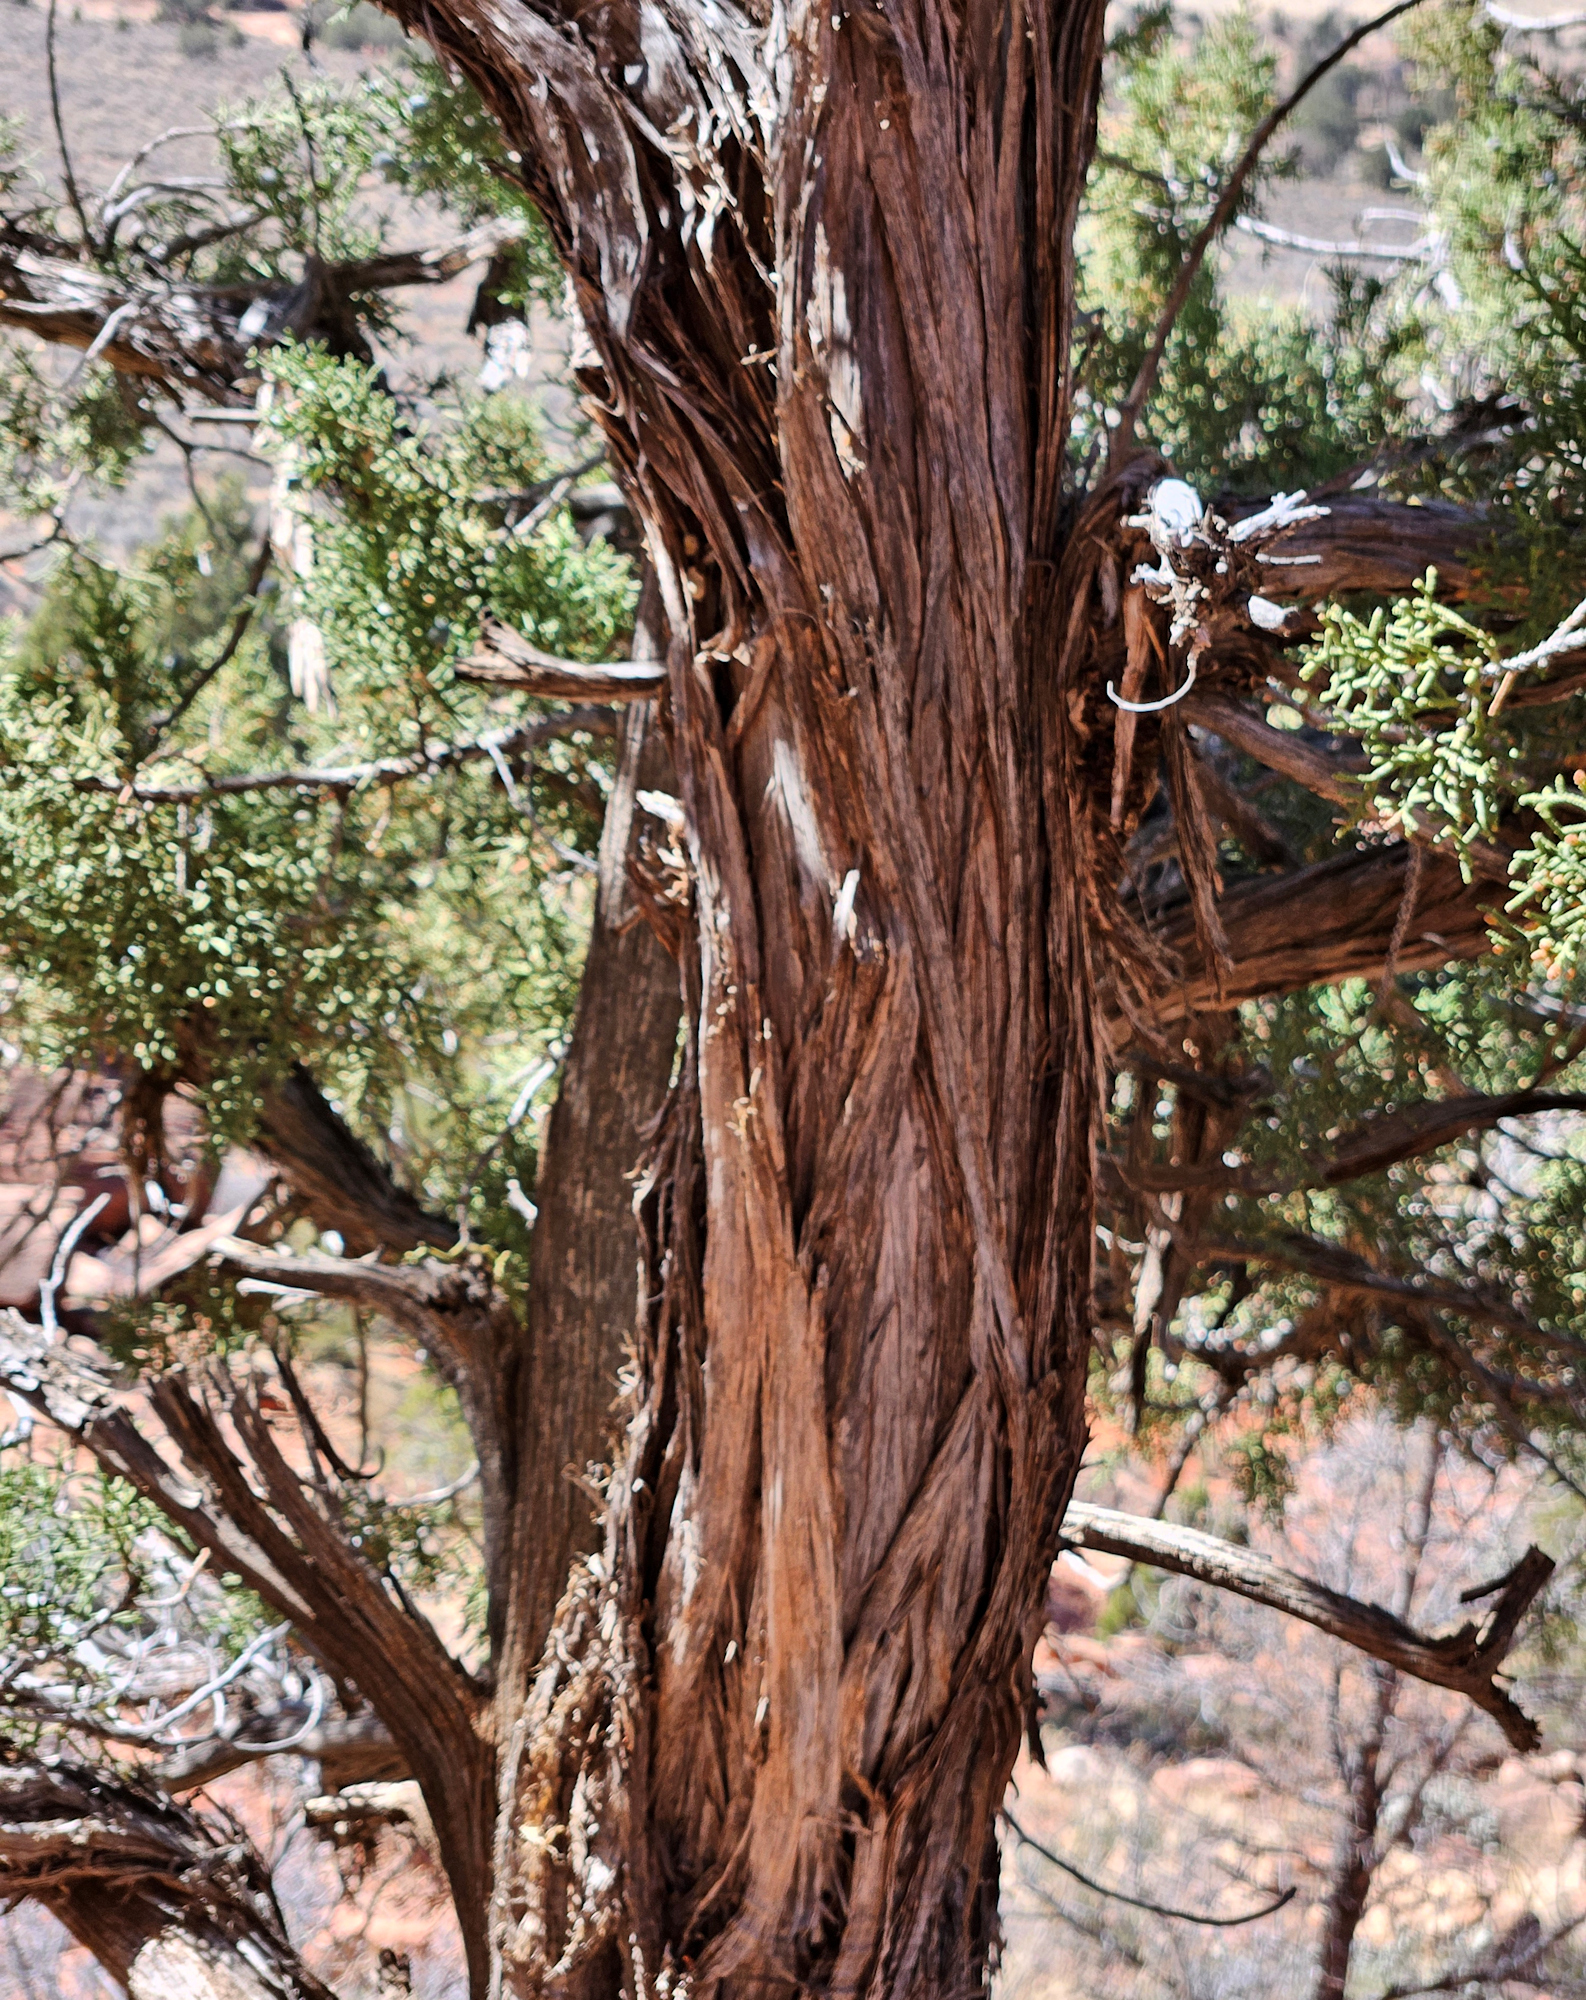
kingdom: Plantae
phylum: Tracheophyta
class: Pinopsida
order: Pinales
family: Cupressaceae
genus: Juniperus
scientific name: Juniperus osteosperma
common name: Utah juniper
